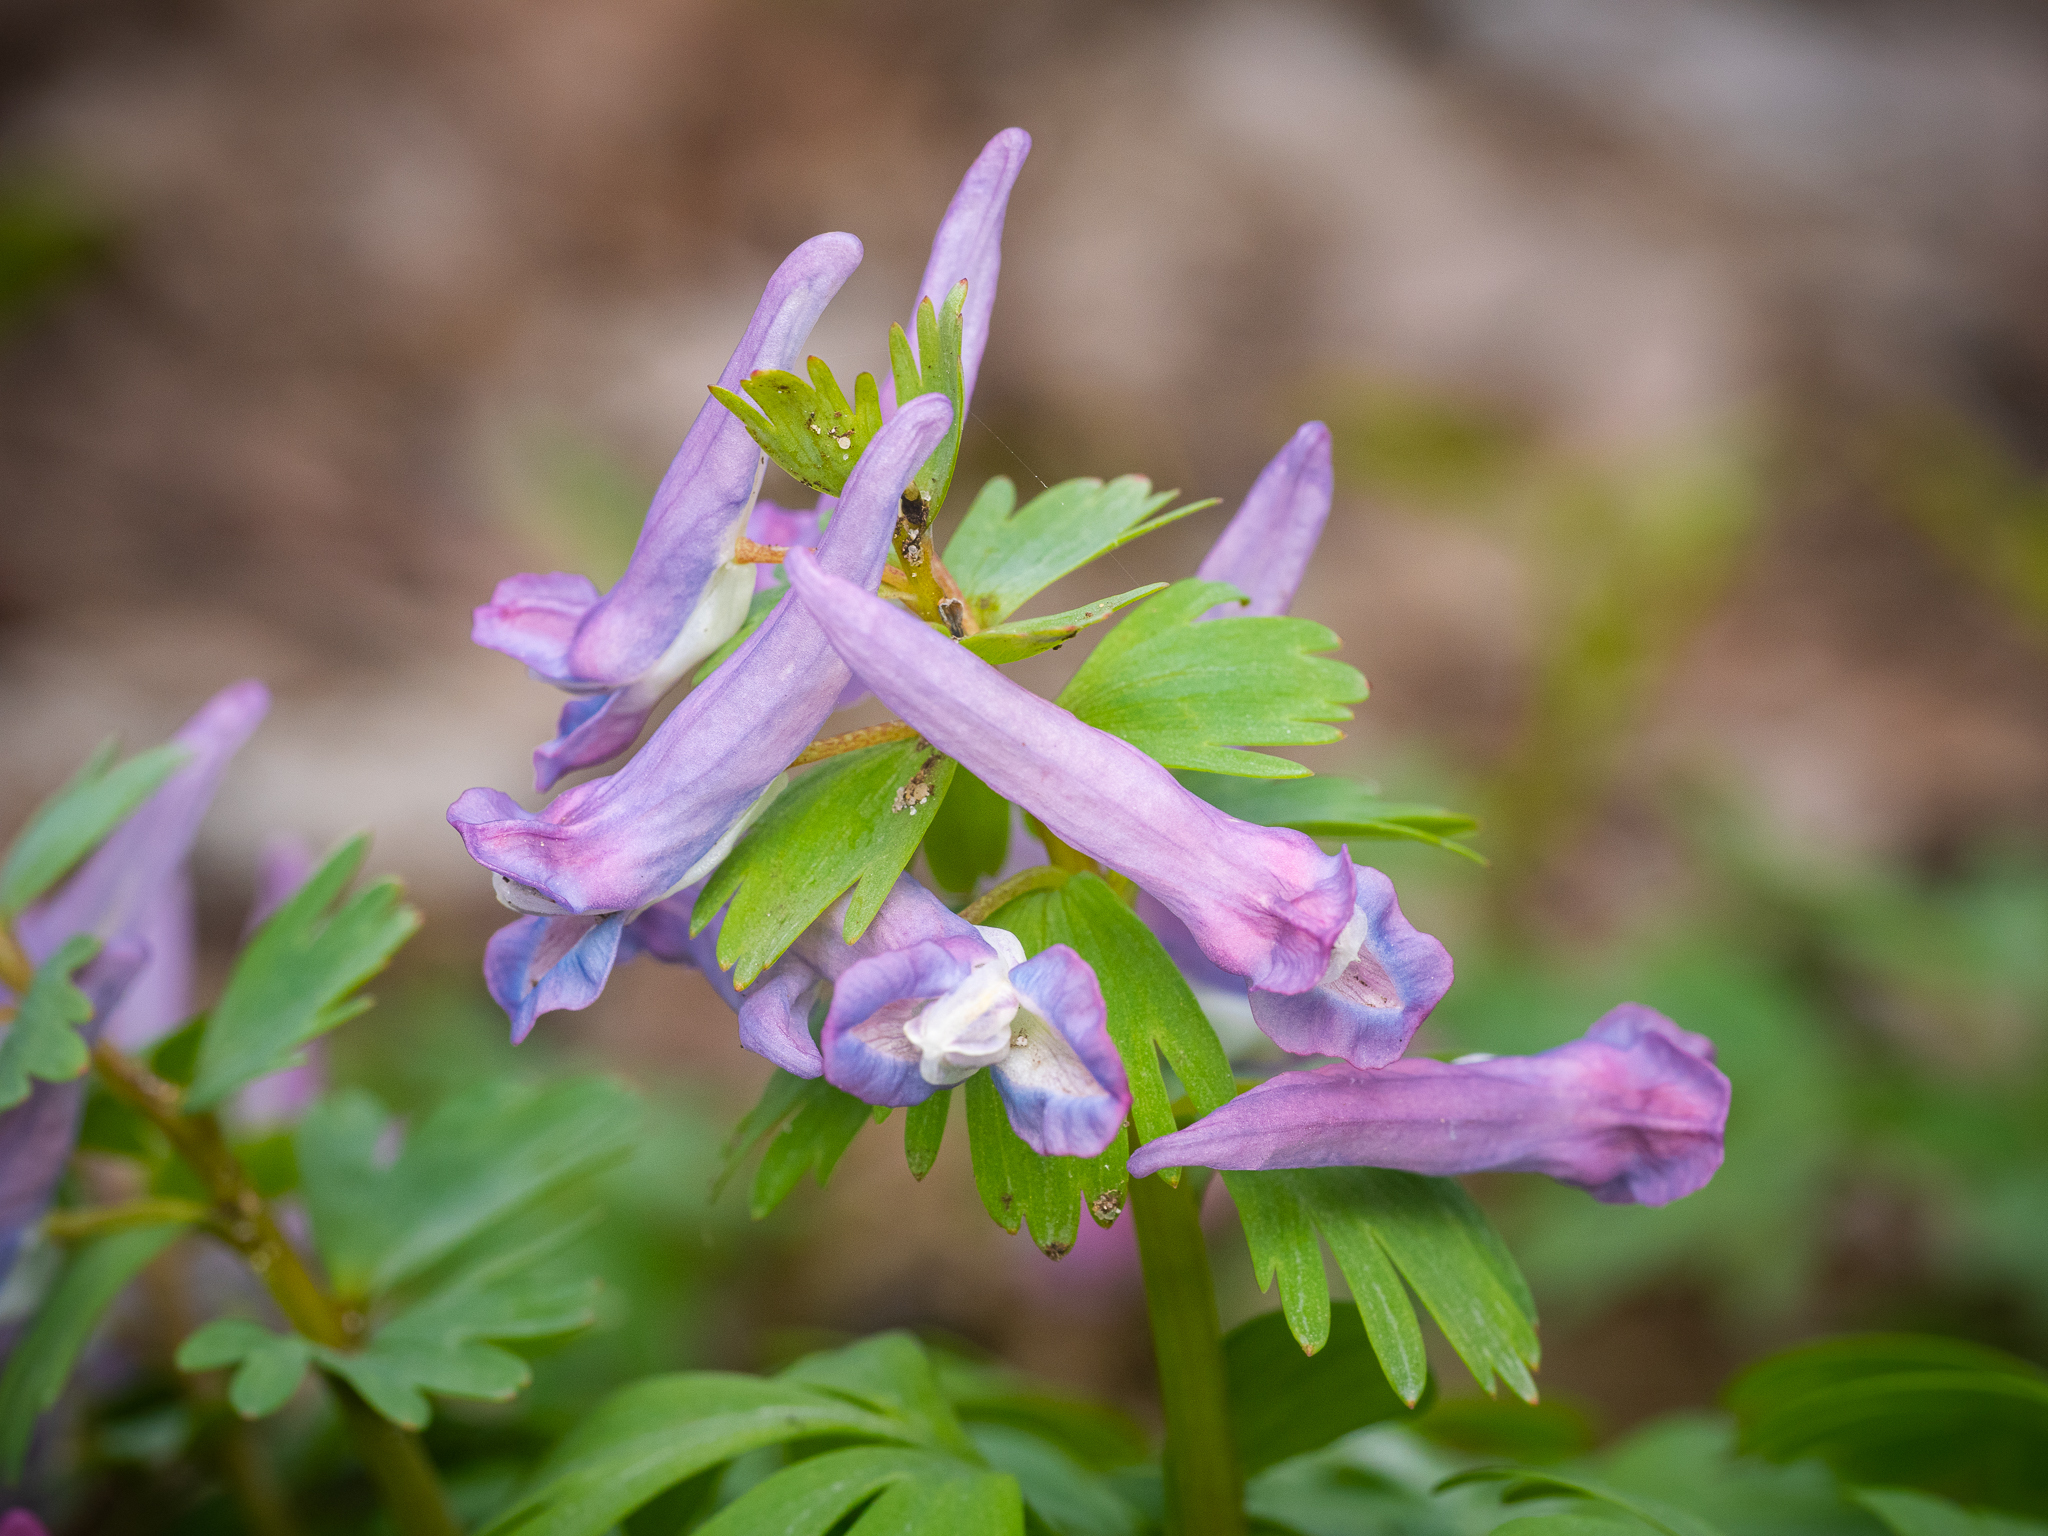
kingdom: Plantae
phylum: Tracheophyta
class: Magnoliopsida
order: Ranunculales
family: Papaveraceae
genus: Corydalis
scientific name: Corydalis solida
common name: Bird-in-a-bush
